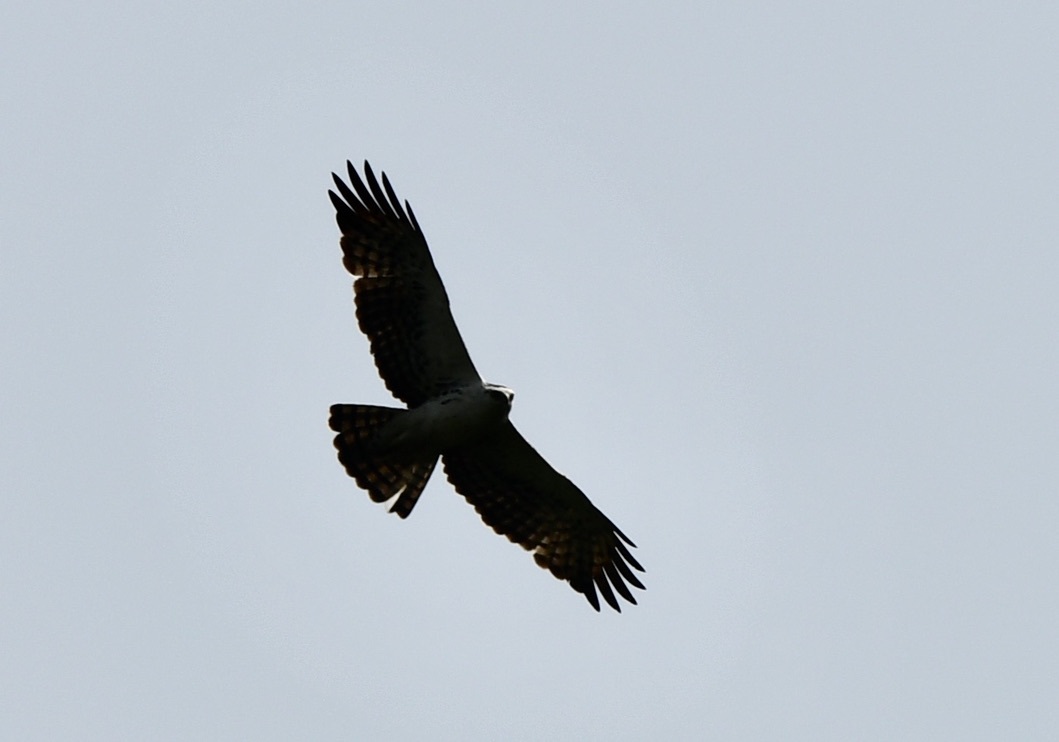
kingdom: Animalia
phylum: Chordata
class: Aves
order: Accipitriformes
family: Accipitridae
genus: Aquila
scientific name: Aquila africana
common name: Cassin's hawk-eagle
